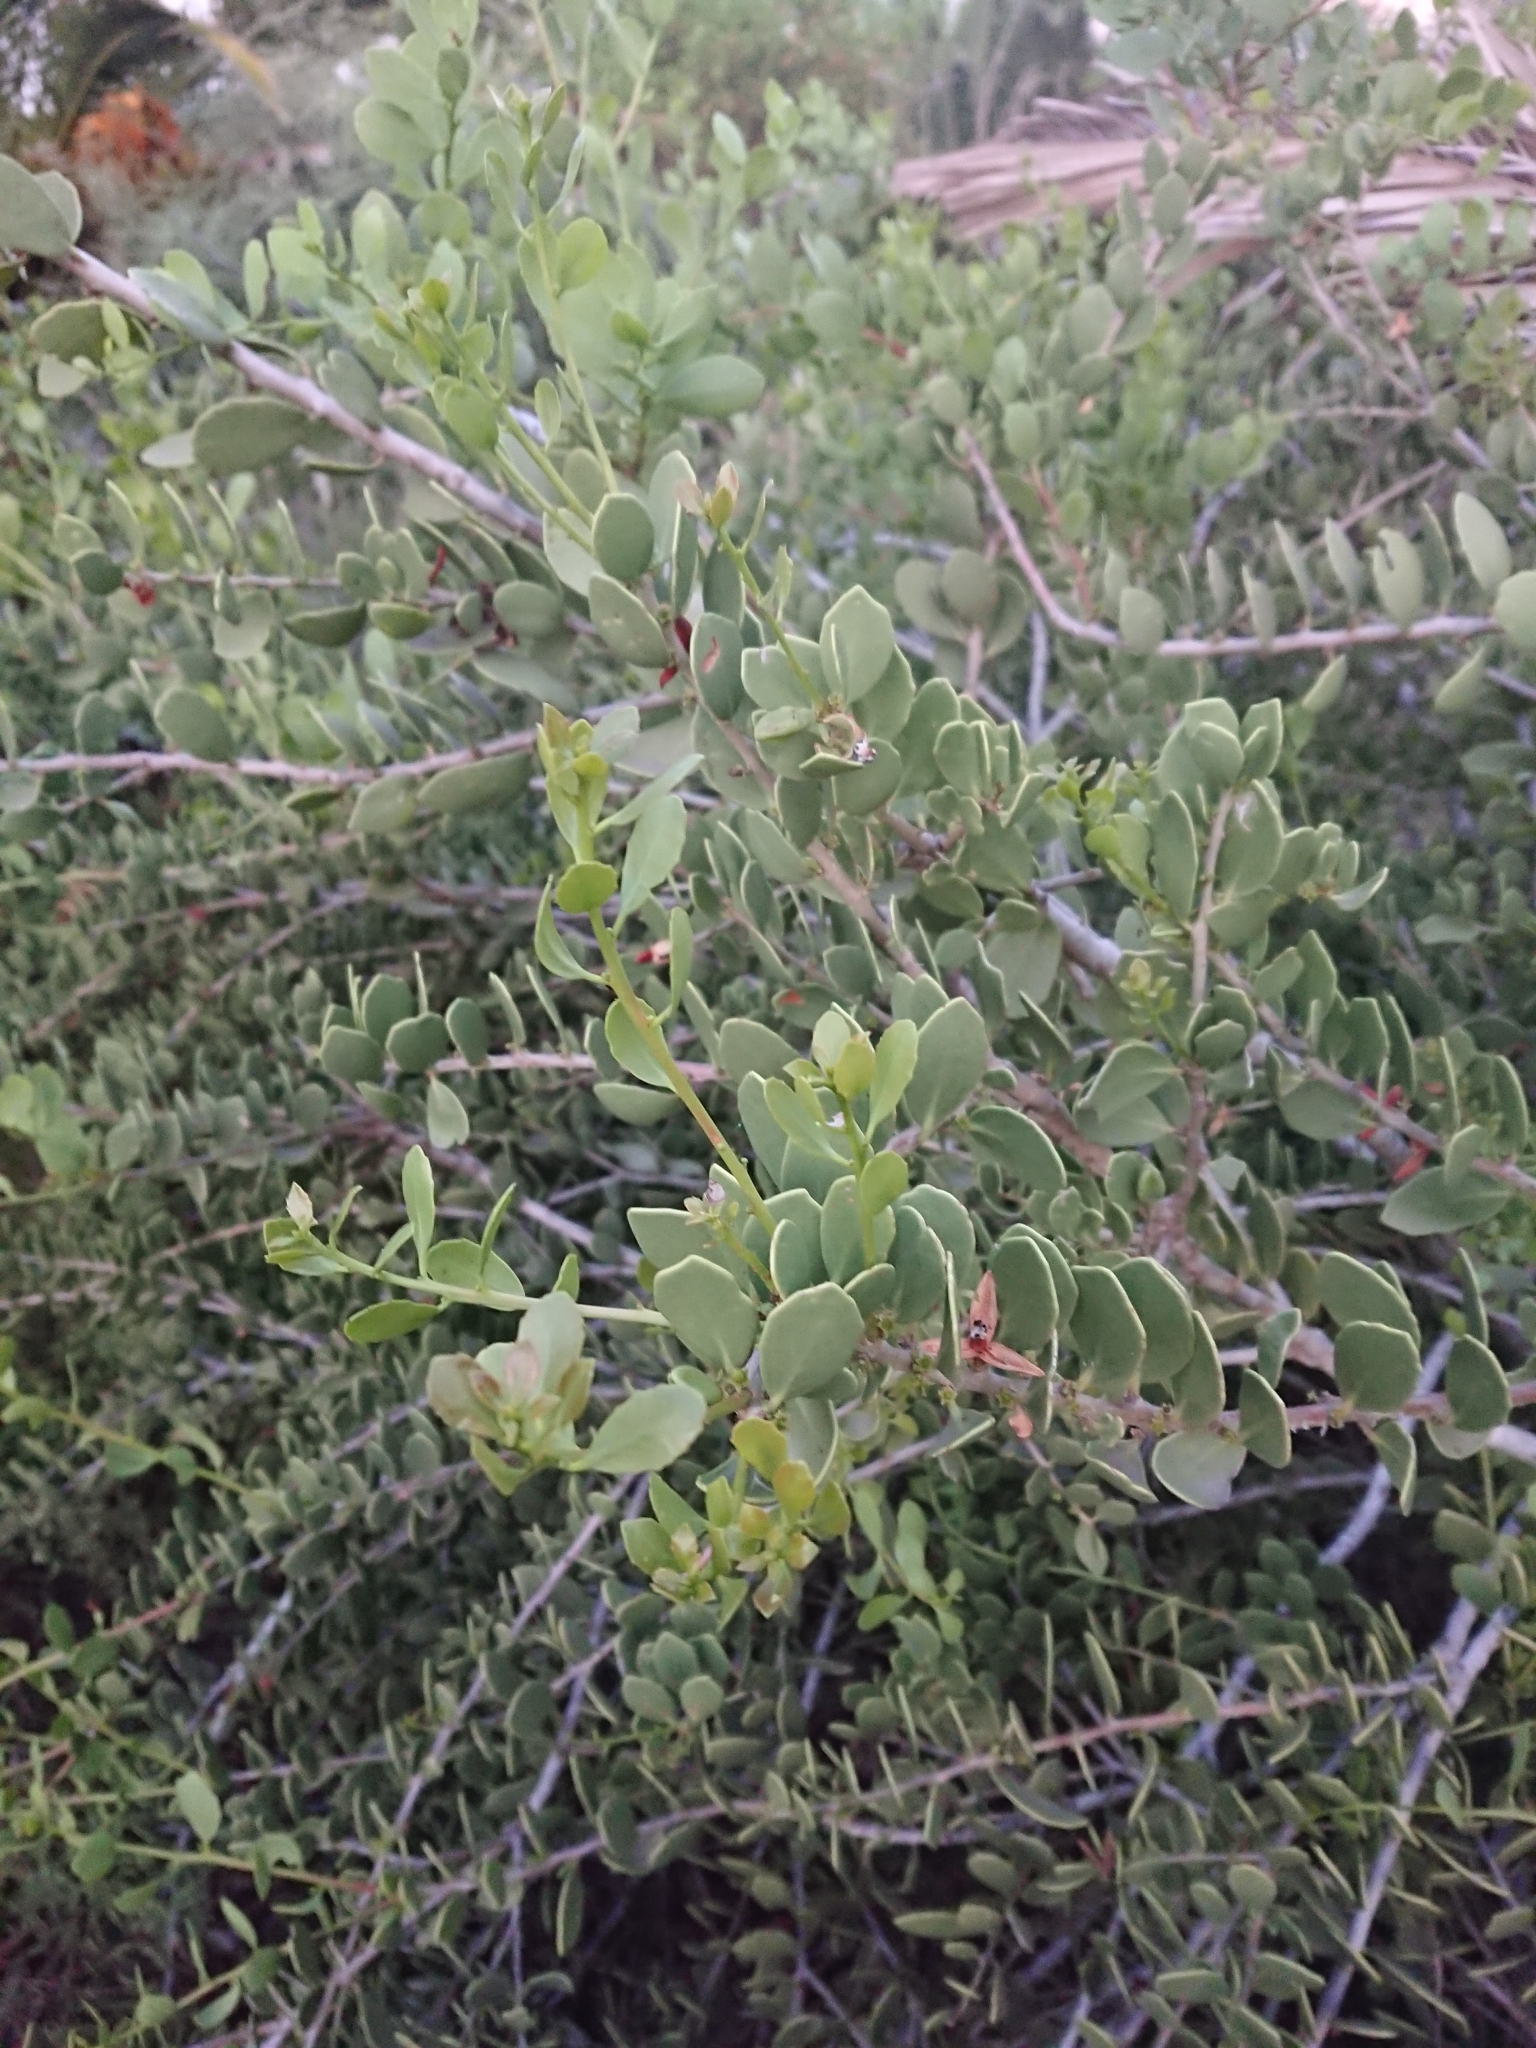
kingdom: Plantae
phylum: Tracheophyta
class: Magnoliopsida
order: Celastrales
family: Celastraceae
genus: Tricerma
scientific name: Tricerma vitis-idaeum
